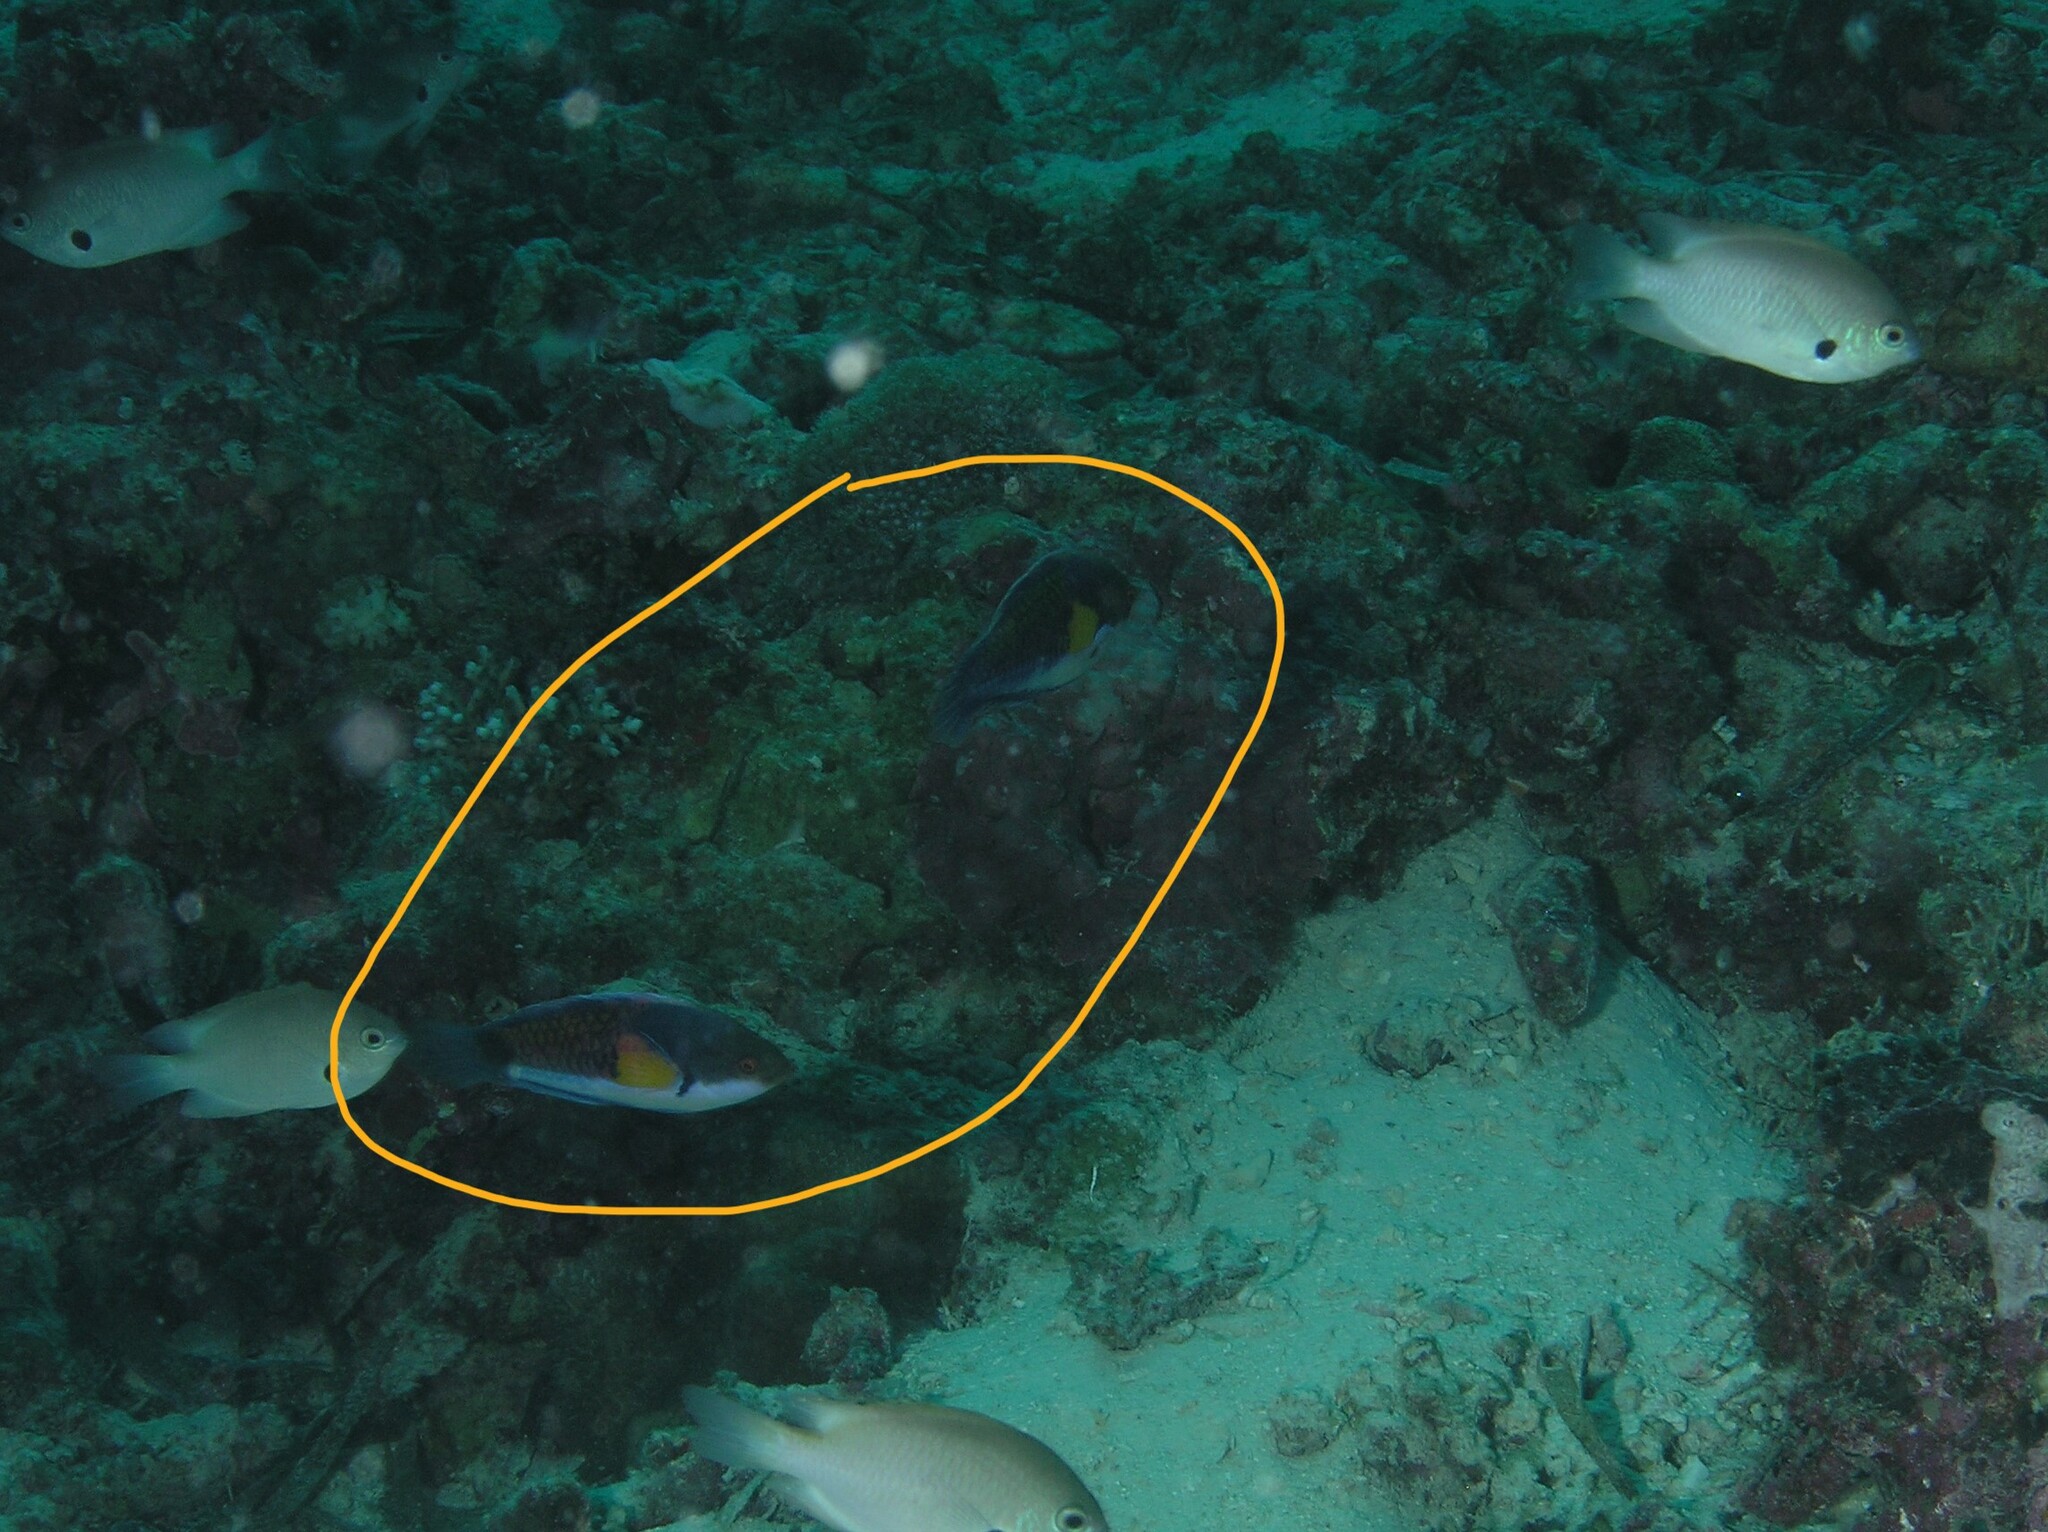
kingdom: Animalia
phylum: Chordata
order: Perciformes
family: Labridae
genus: Cirrhilabrus
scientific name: Cirrhilabrus cyanopleura
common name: Coralline wrasse
